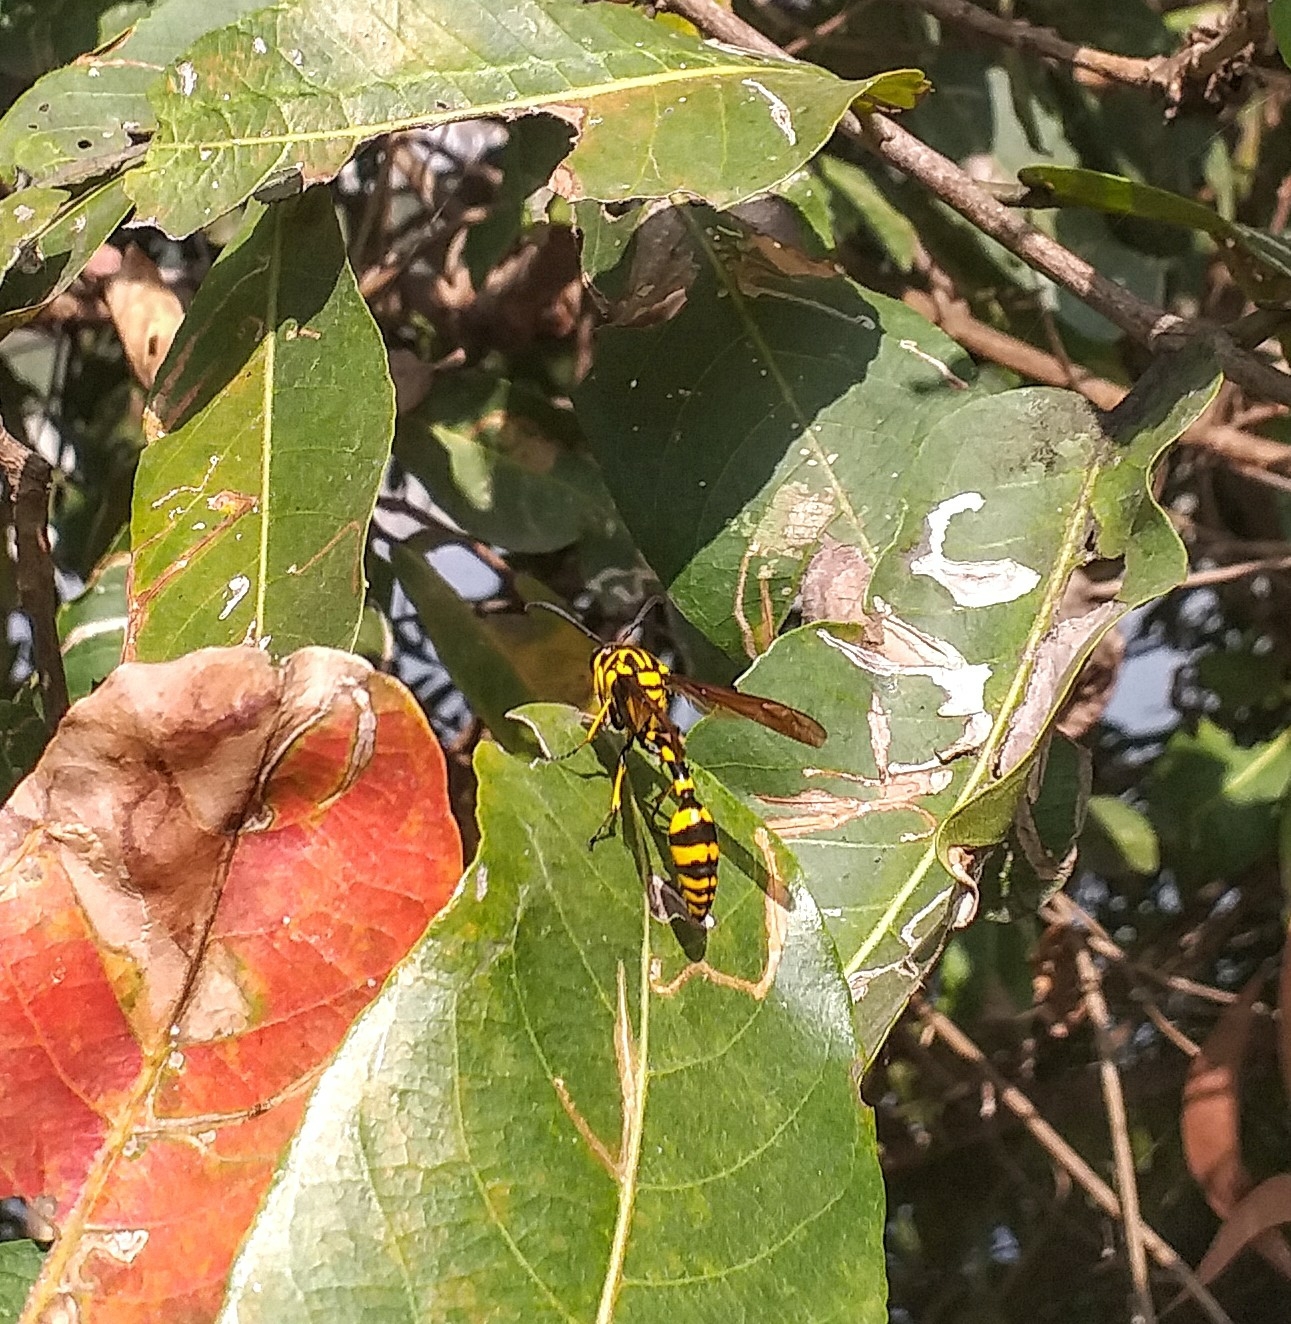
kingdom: Animalia
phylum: Arthropoda
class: Insecta
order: Hymenoptera
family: Eumenidae
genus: Phimenes
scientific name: Phimenes flavopictus
